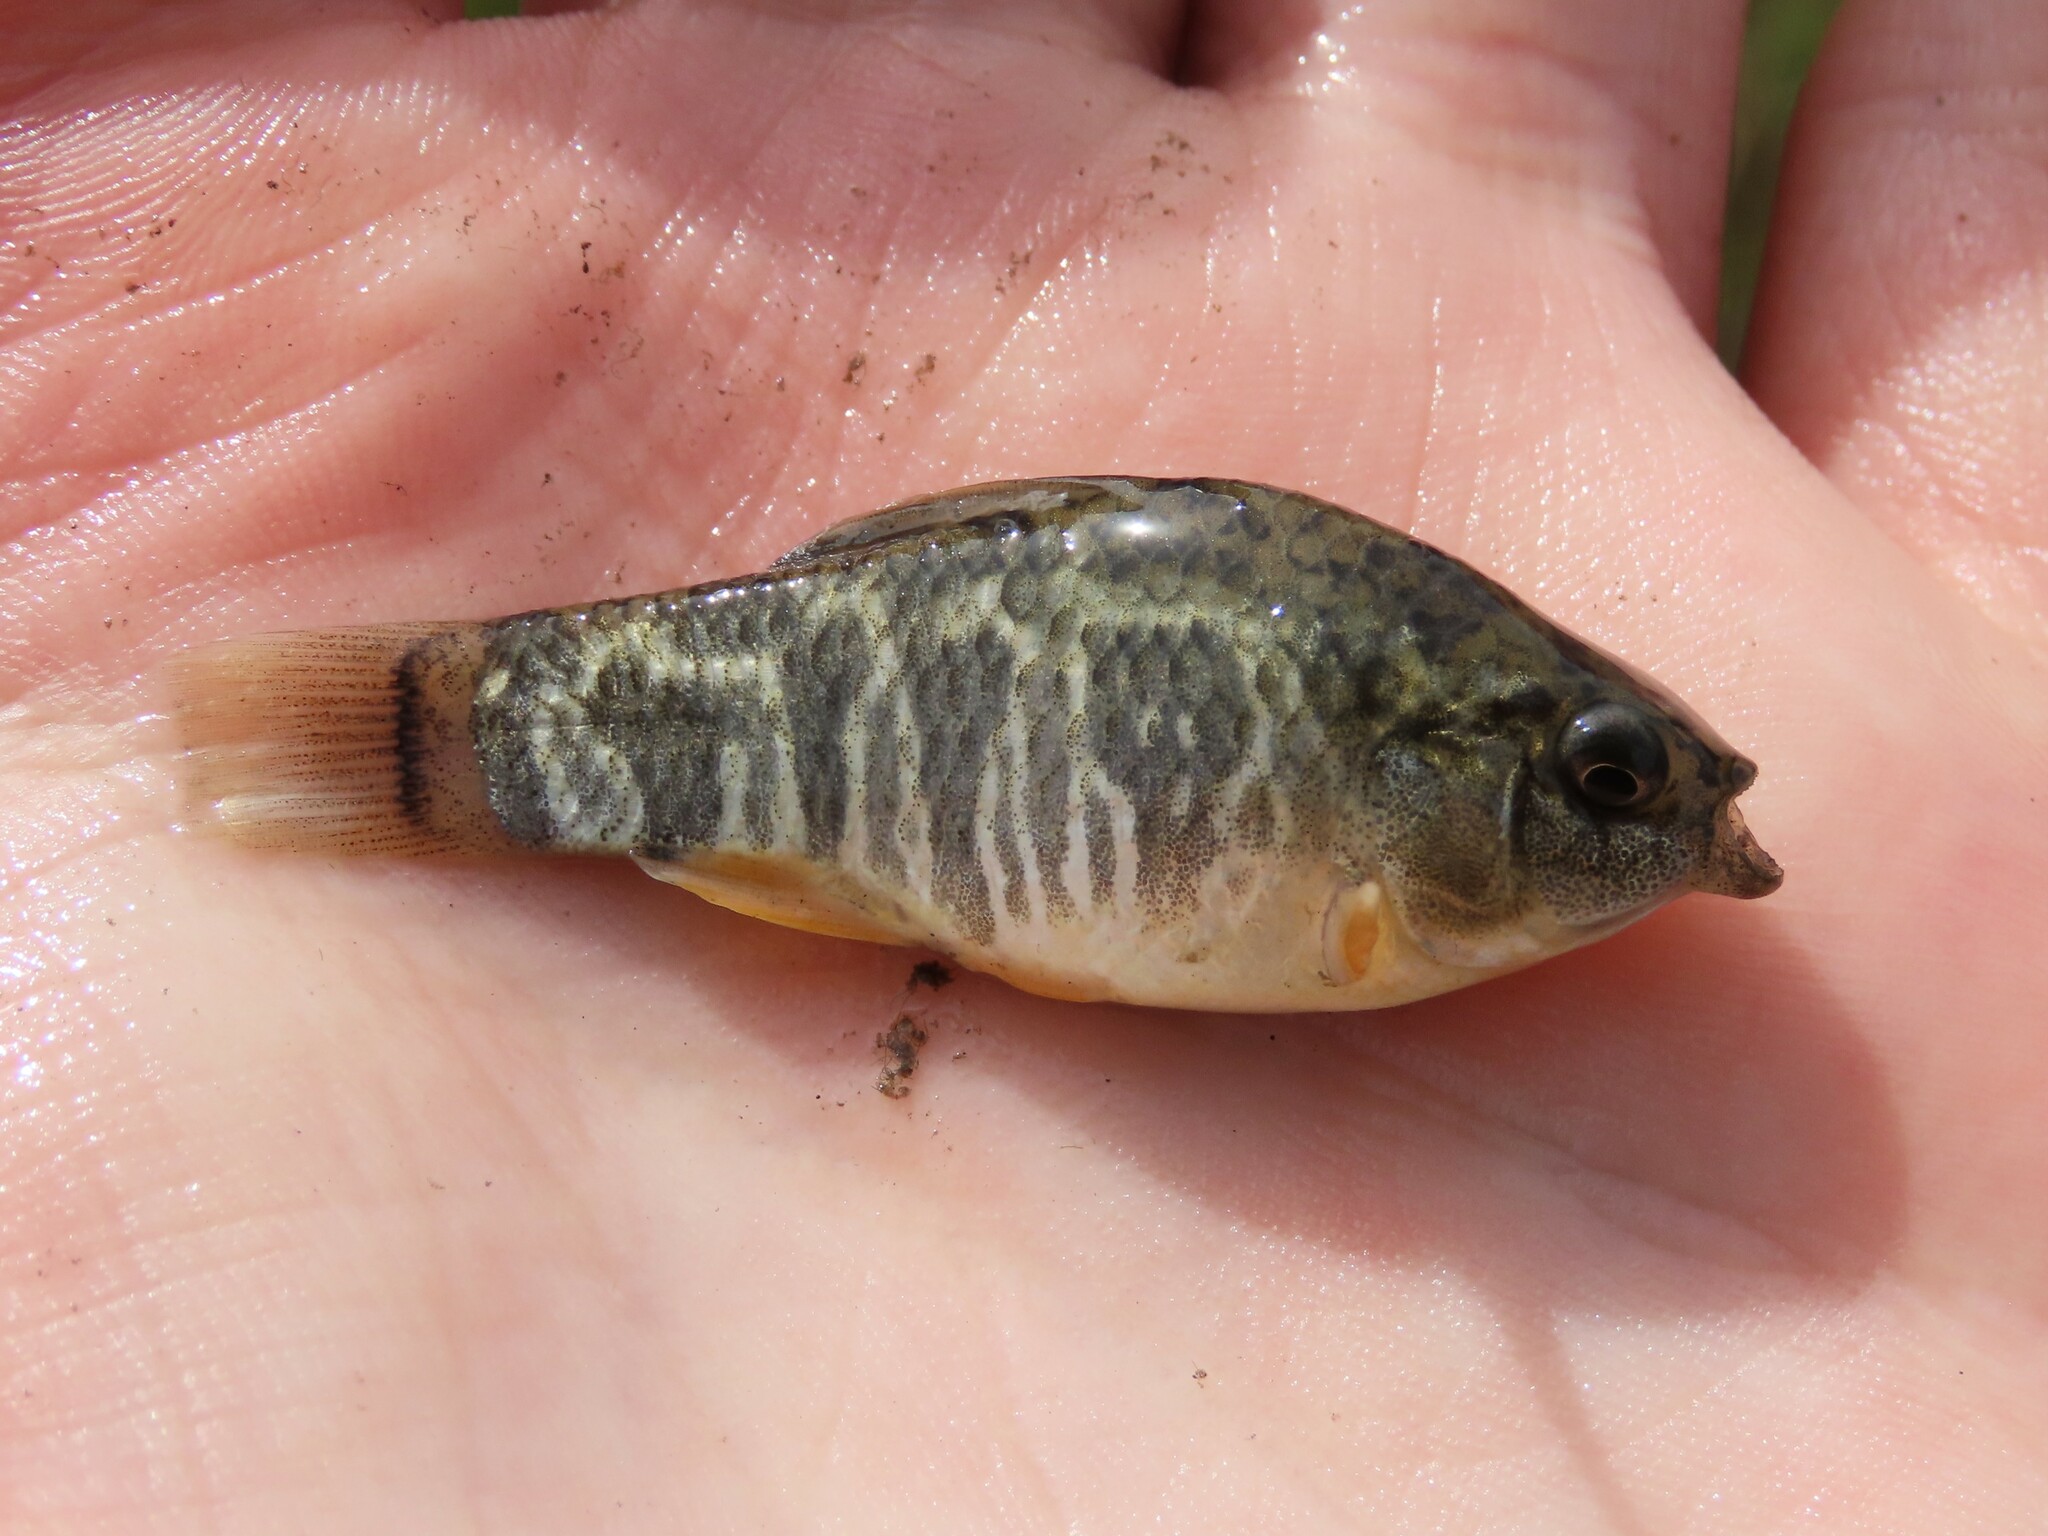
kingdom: Animalia
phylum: Chordata
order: Cyprinodontiformes
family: Cyprinodontidae
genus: Cyprinodon
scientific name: Cyprinodon variegatus
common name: Sheepshead minnow
